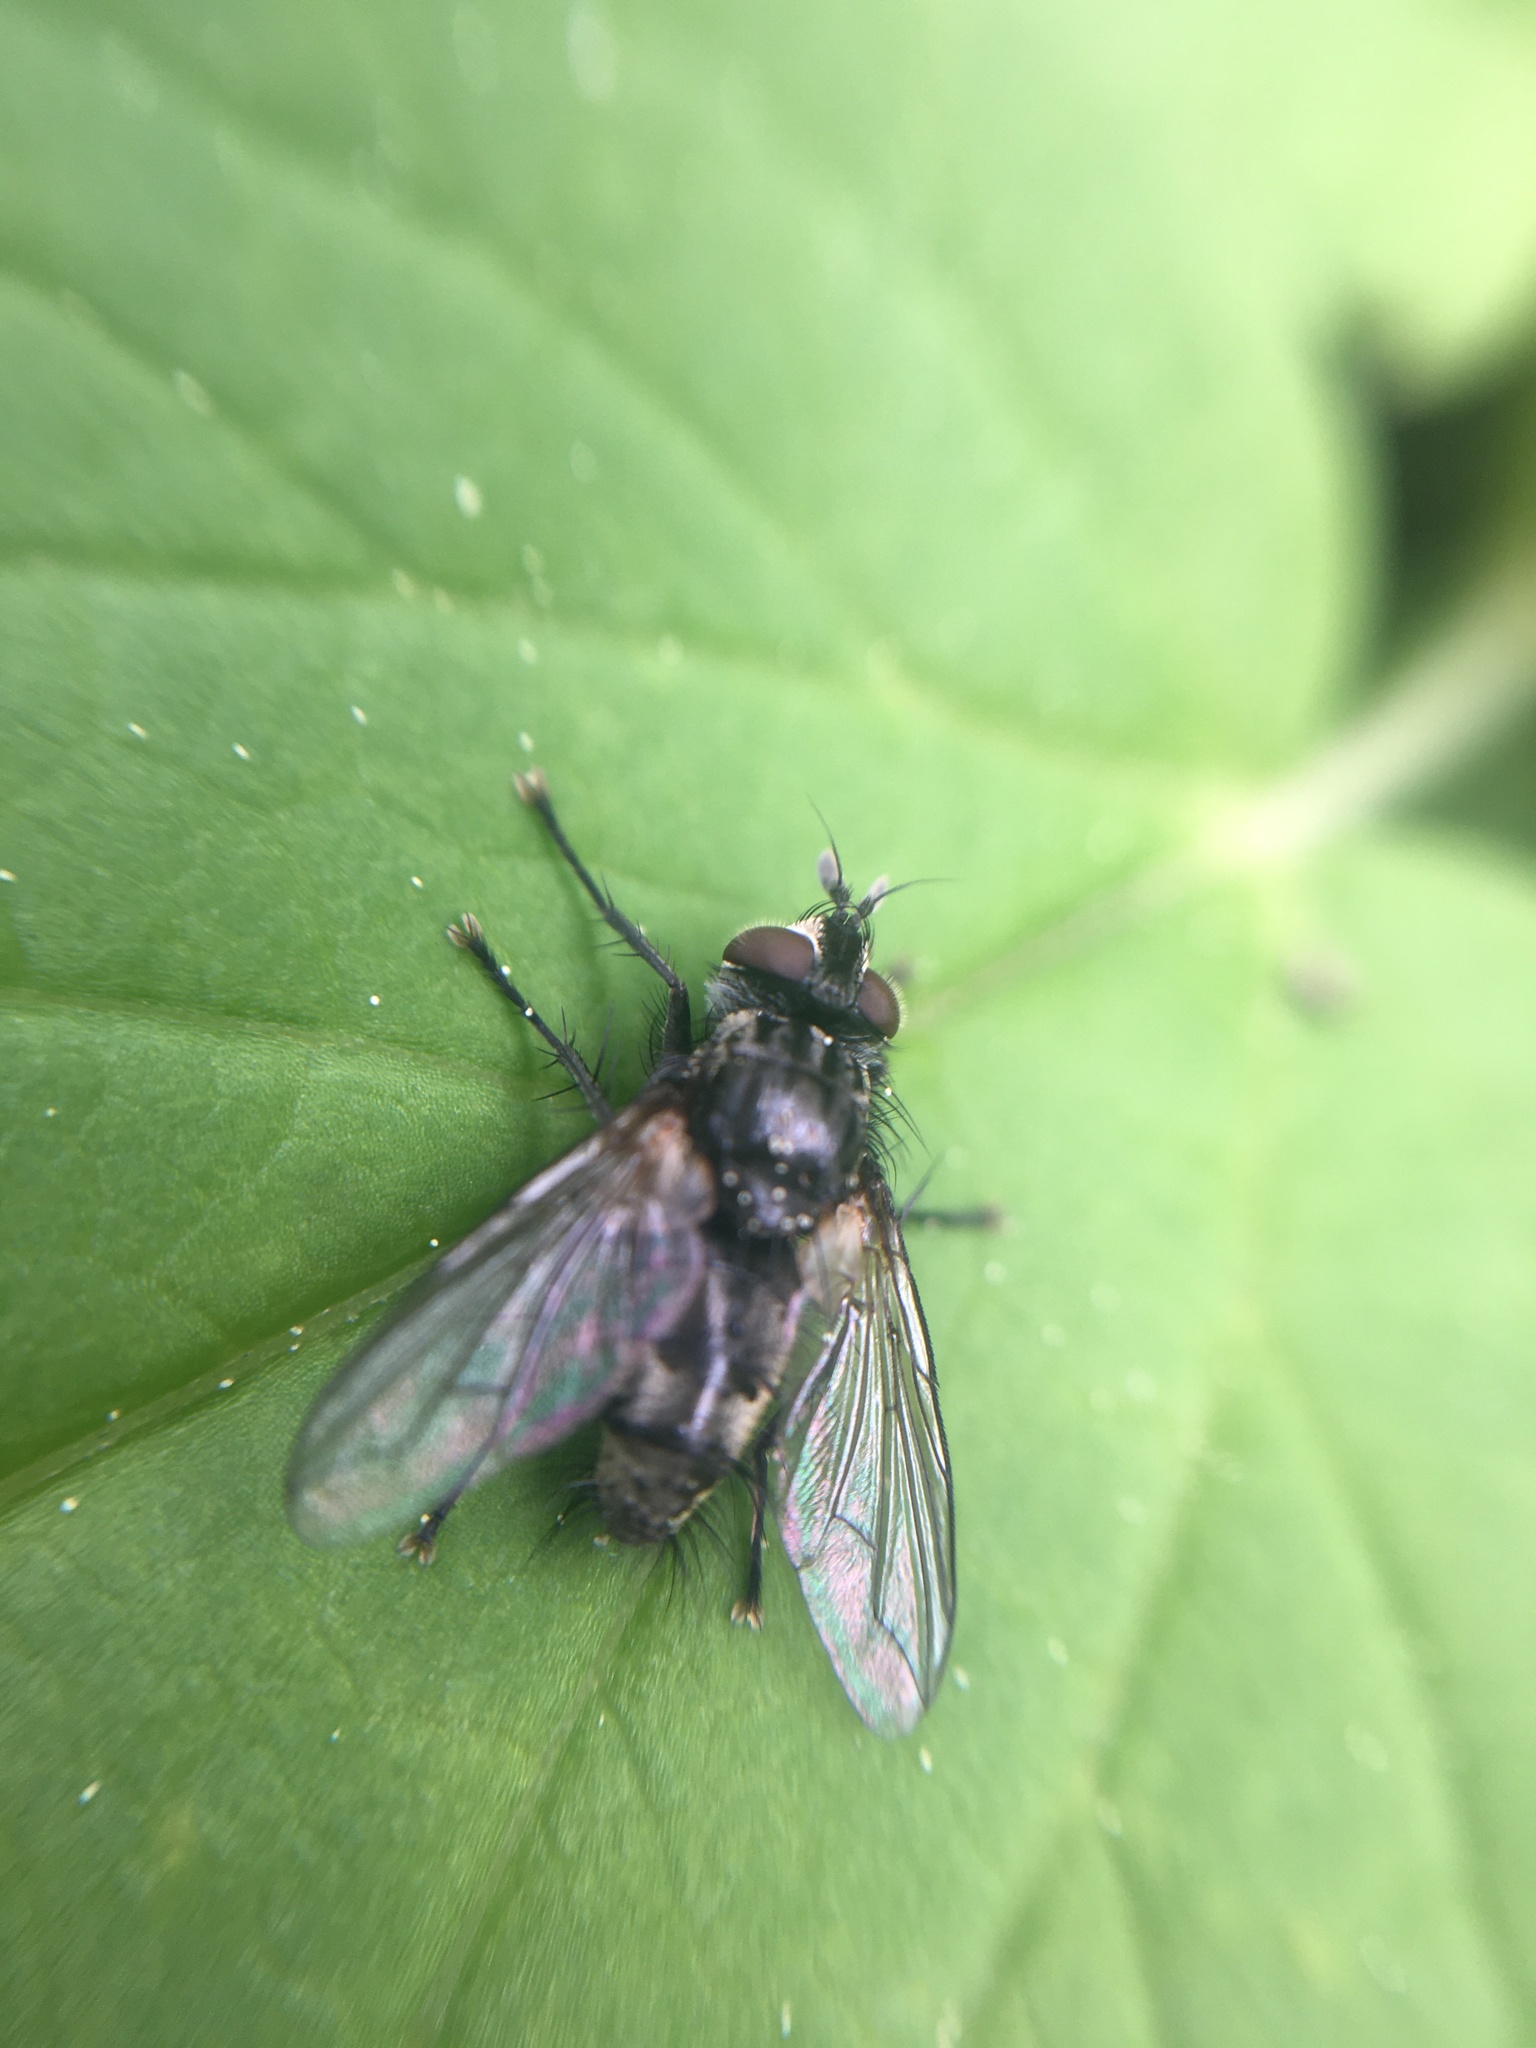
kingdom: Animalia
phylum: Arthropoda
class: Insecta
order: Diptera
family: Tachinidae
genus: Phorocera
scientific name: Phorocera obscura
